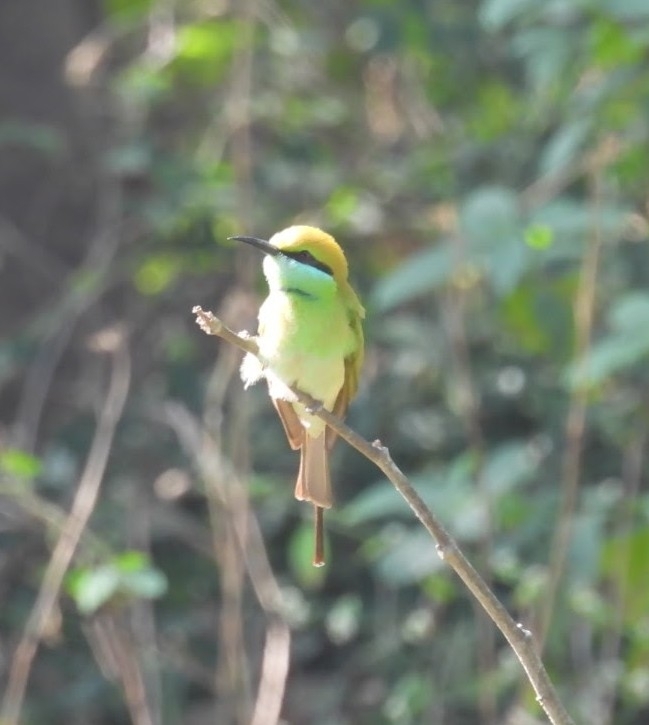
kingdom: Animalia
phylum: Chordata
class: Aves
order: Coraciiformes
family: Meropidae
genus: Merops
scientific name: Merops orientalis
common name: Green bee-eater
